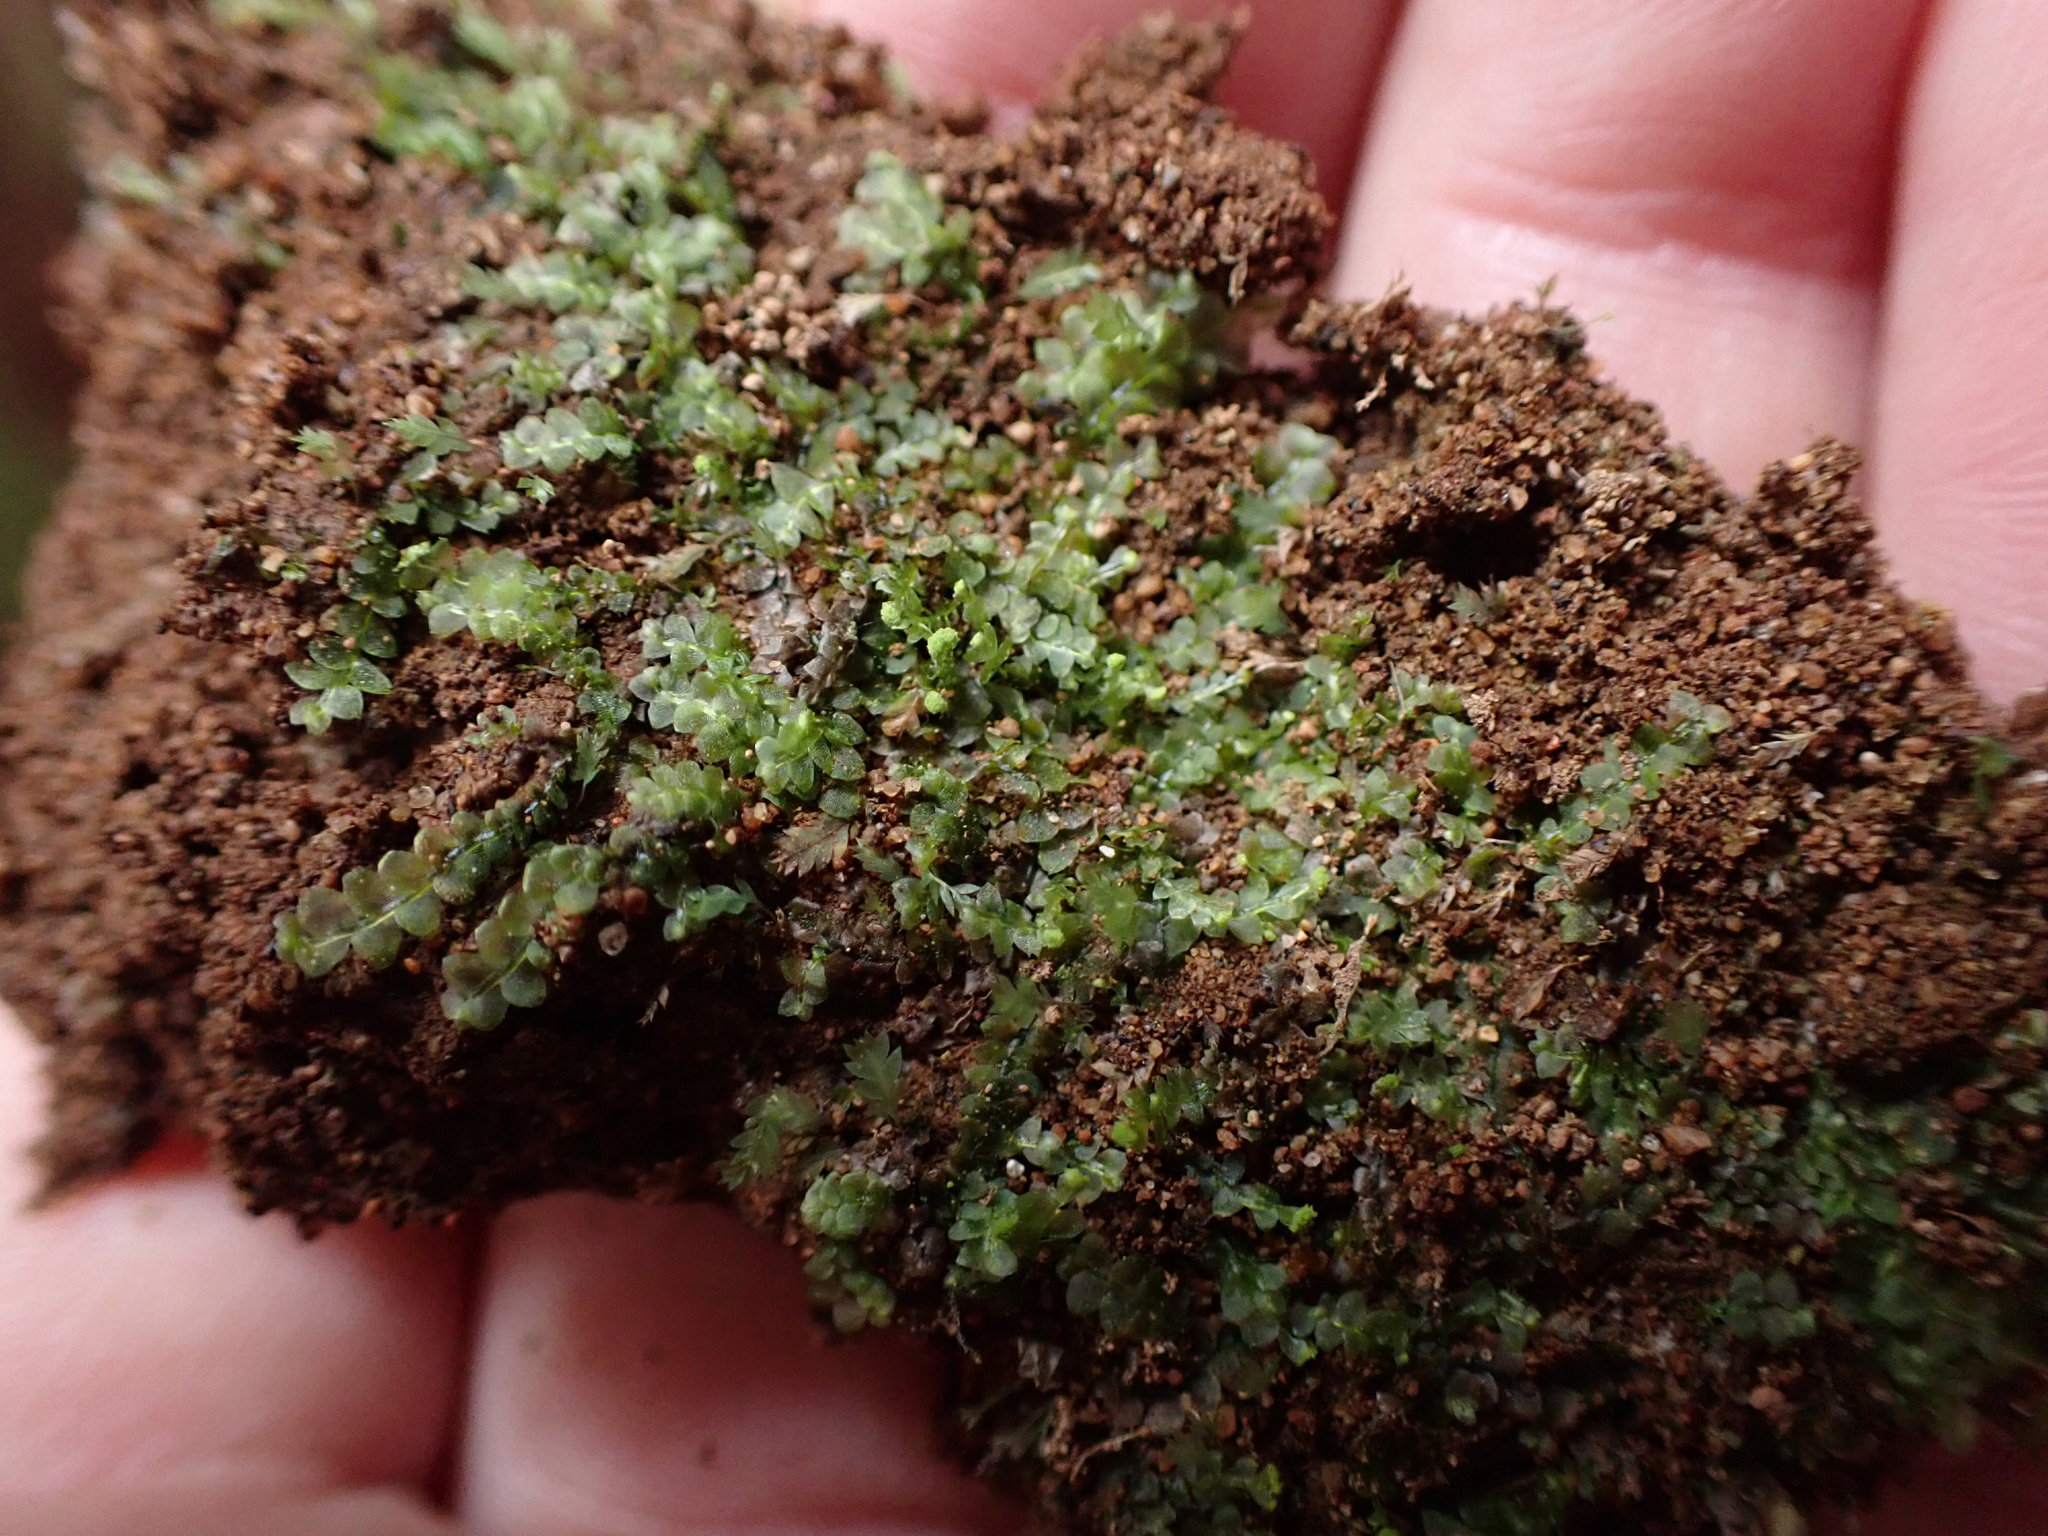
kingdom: Plantae
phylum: Marchantiophyta
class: Jungermanniopsida
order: Jungermanniales
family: Calypogeiaceae
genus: Calypogeia
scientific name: Calypogeia muelleriana
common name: Mueller s pouchwort
